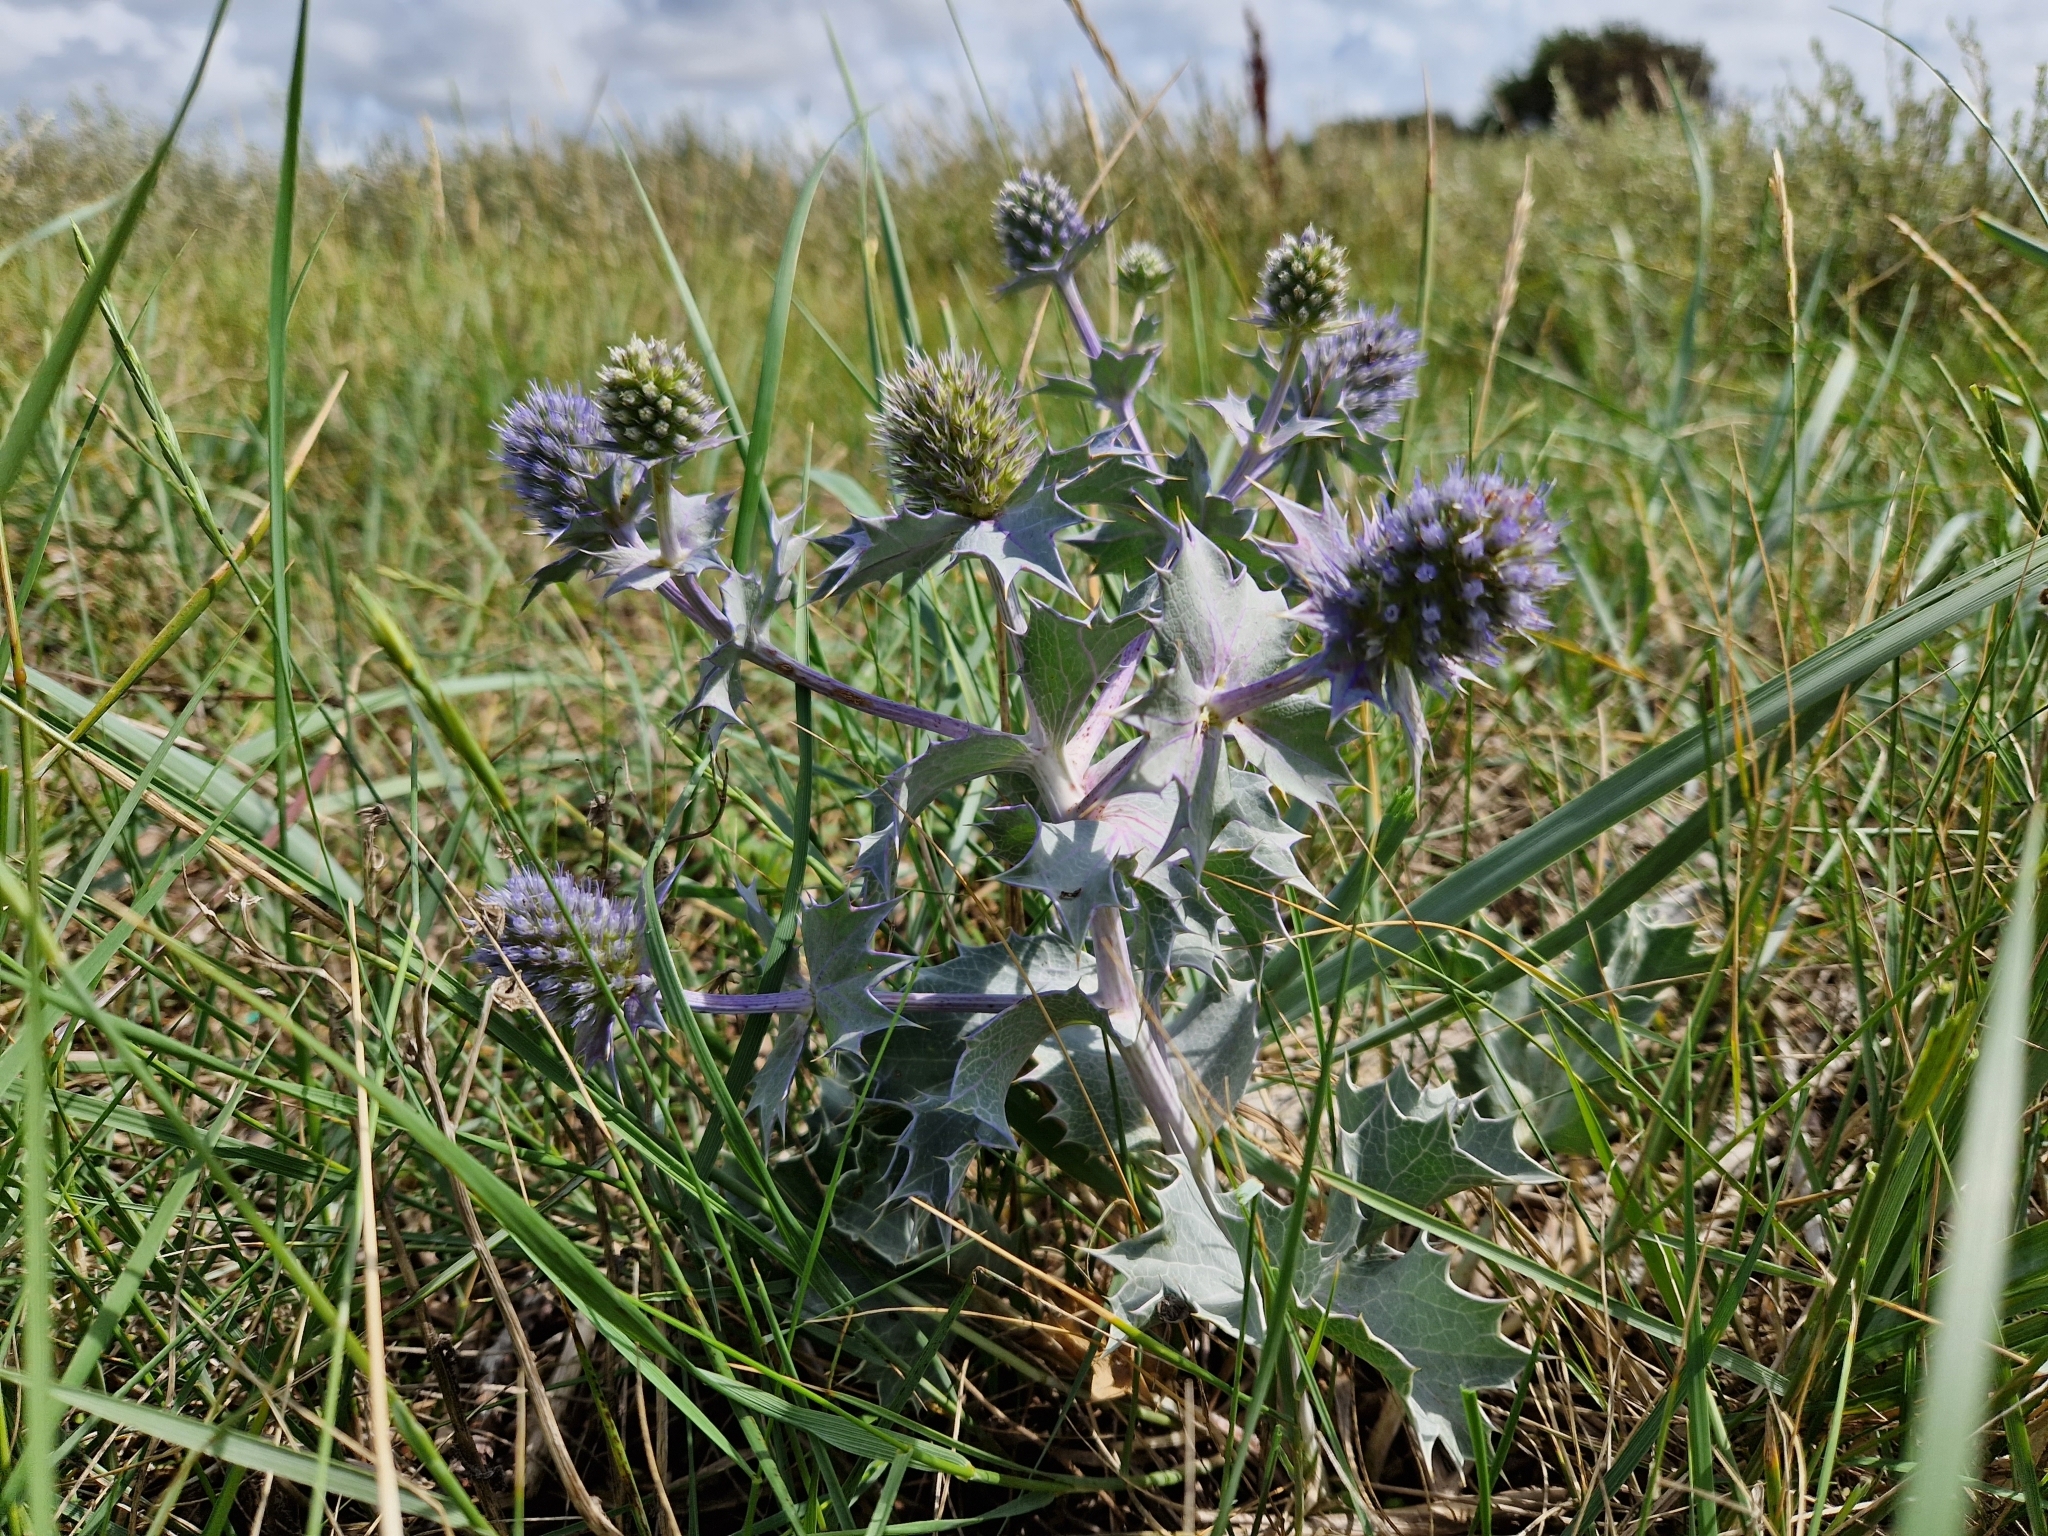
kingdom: Plantae
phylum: Tracheophyta
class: Magnoliopsida
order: Apiales
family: Apiaceae
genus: Eryngium
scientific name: Eryngium maritimum
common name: Sea-holly
